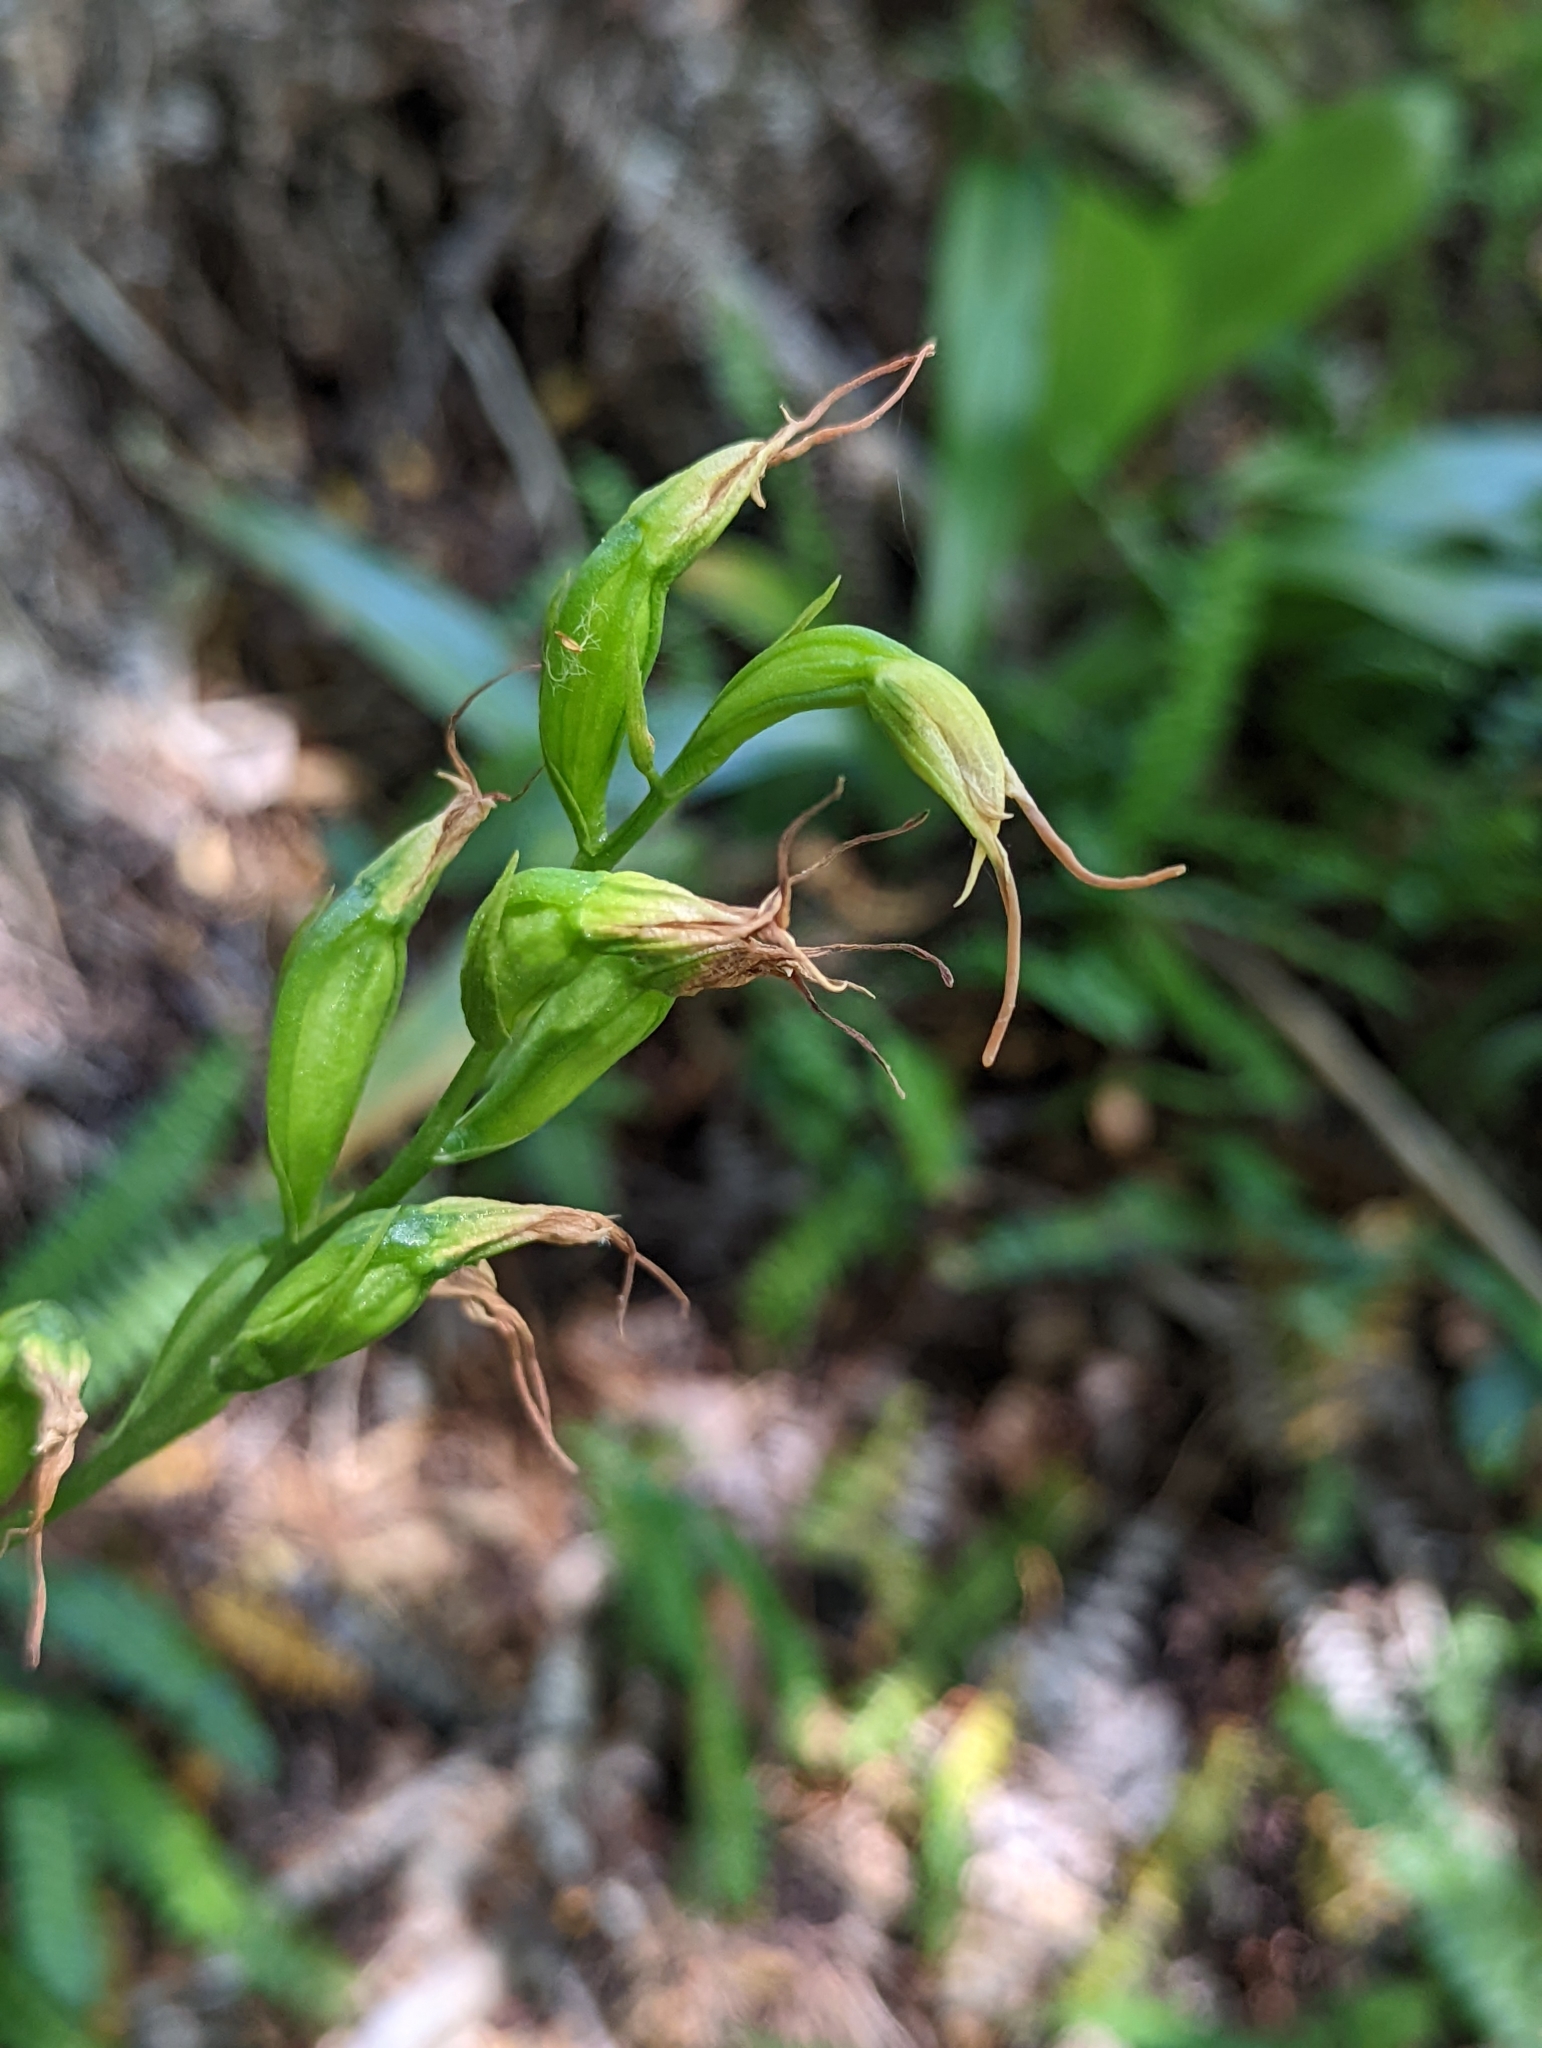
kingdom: Plantae
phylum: Tracheophyta
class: Liliopsida
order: Asparagales
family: Orchidaceae
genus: Gavilea
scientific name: Gavilea araucana
